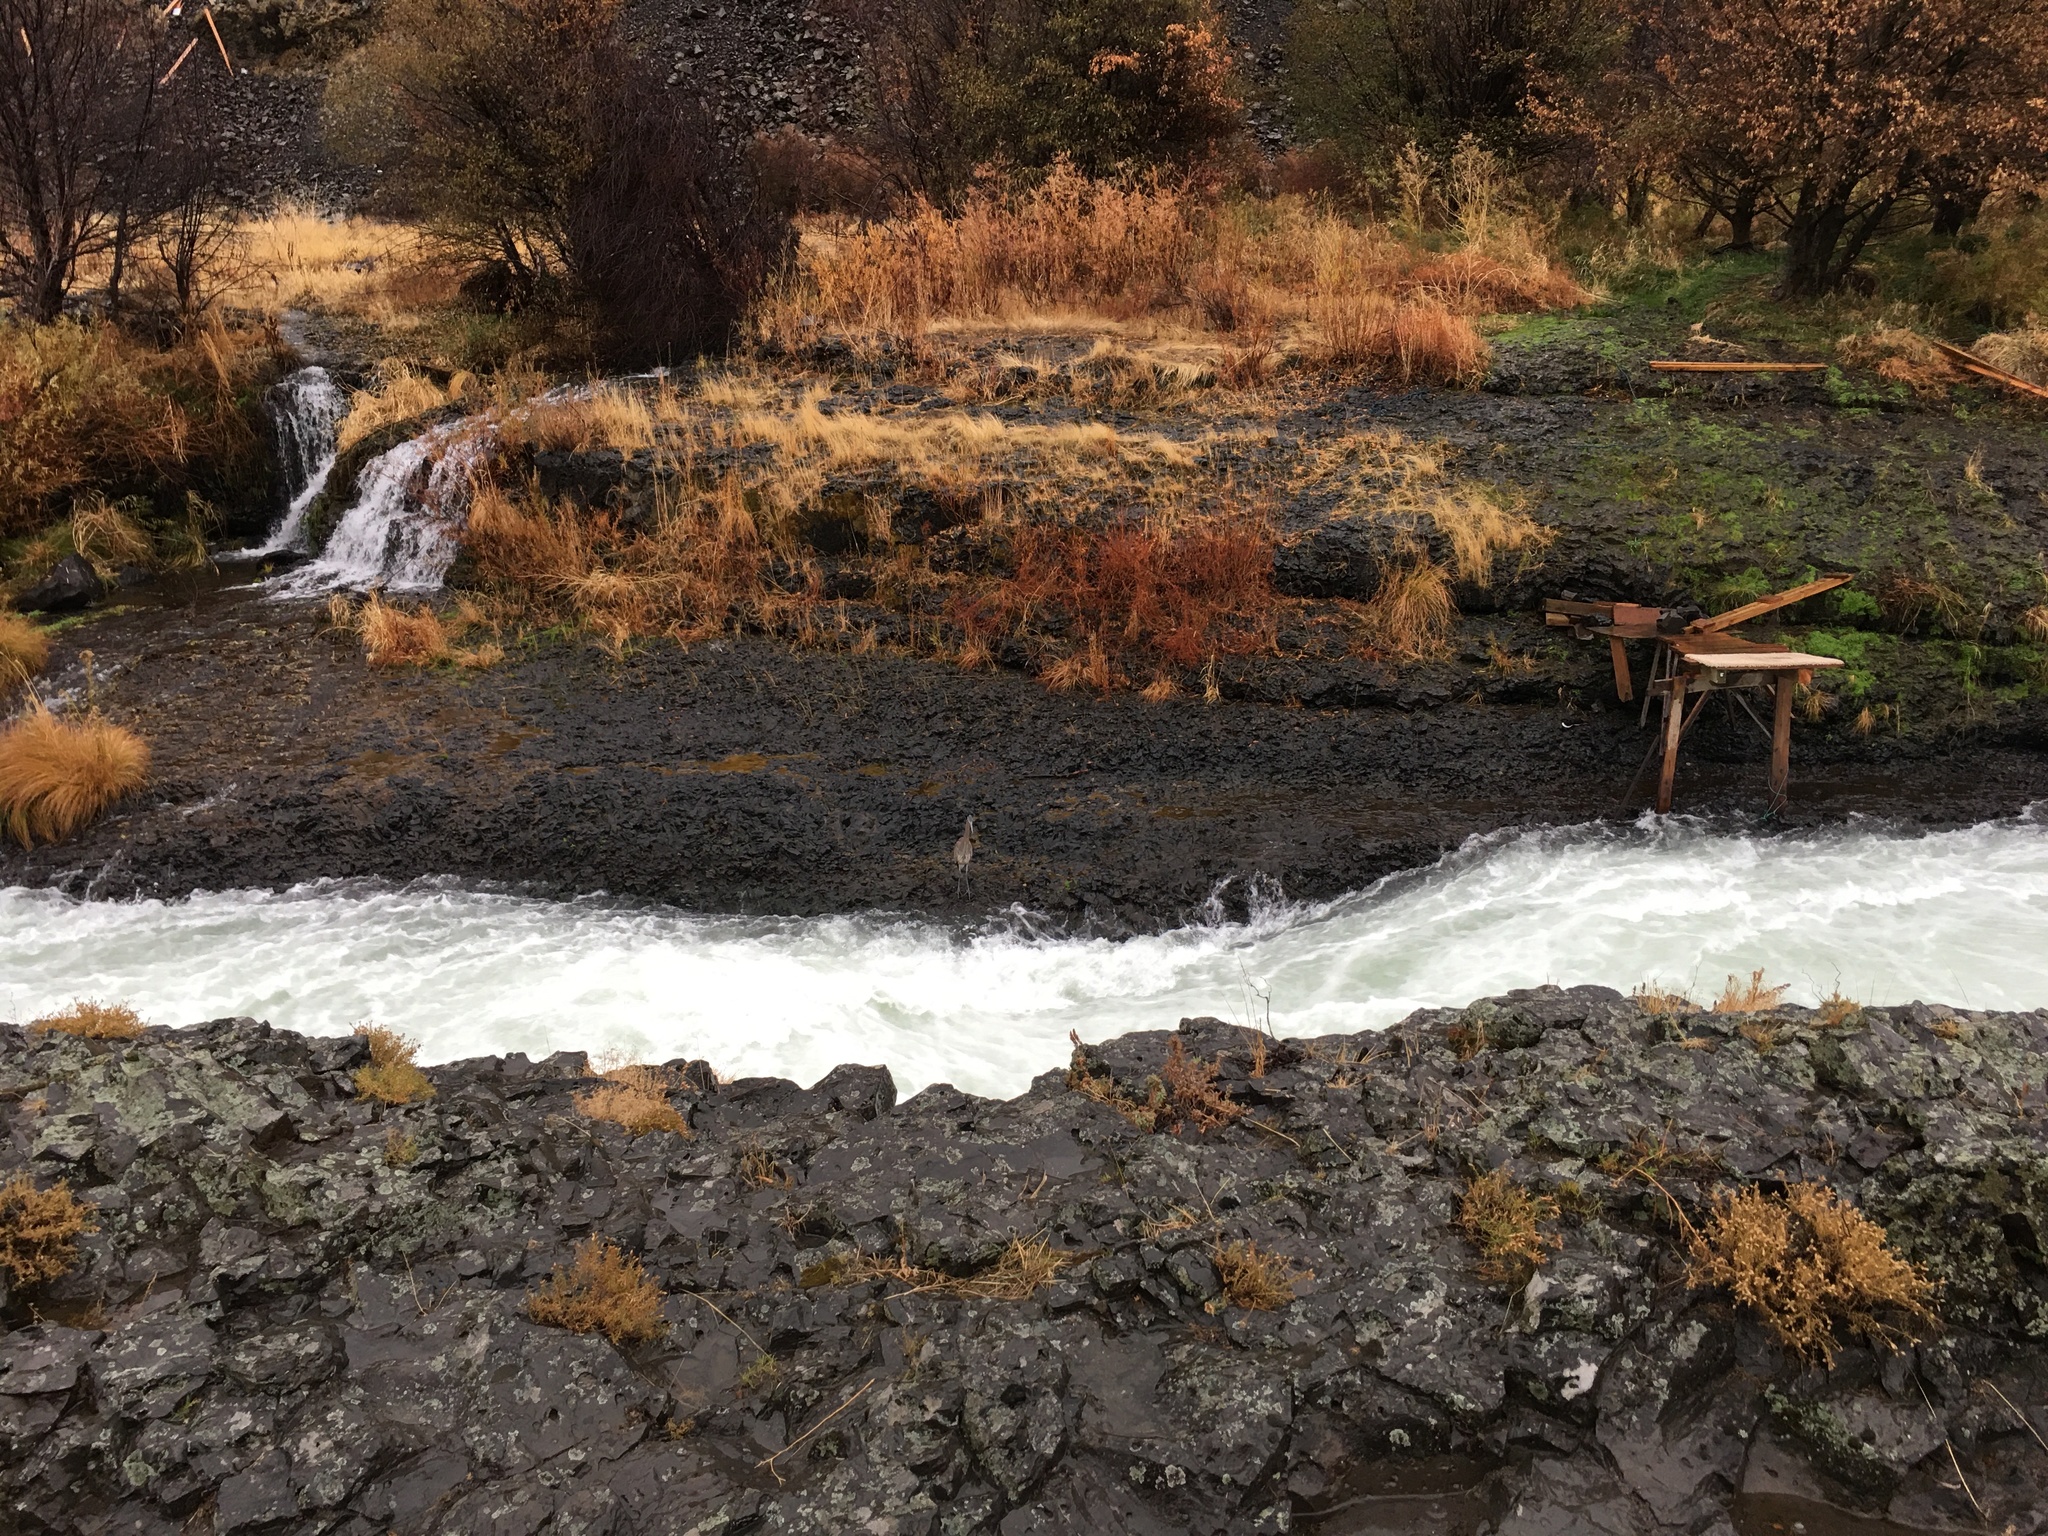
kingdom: Animalia
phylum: Chordata
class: Aves
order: Pelecaniformes
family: Ardeidae
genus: Ardea
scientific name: Ardea herodias
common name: Great blue heron
